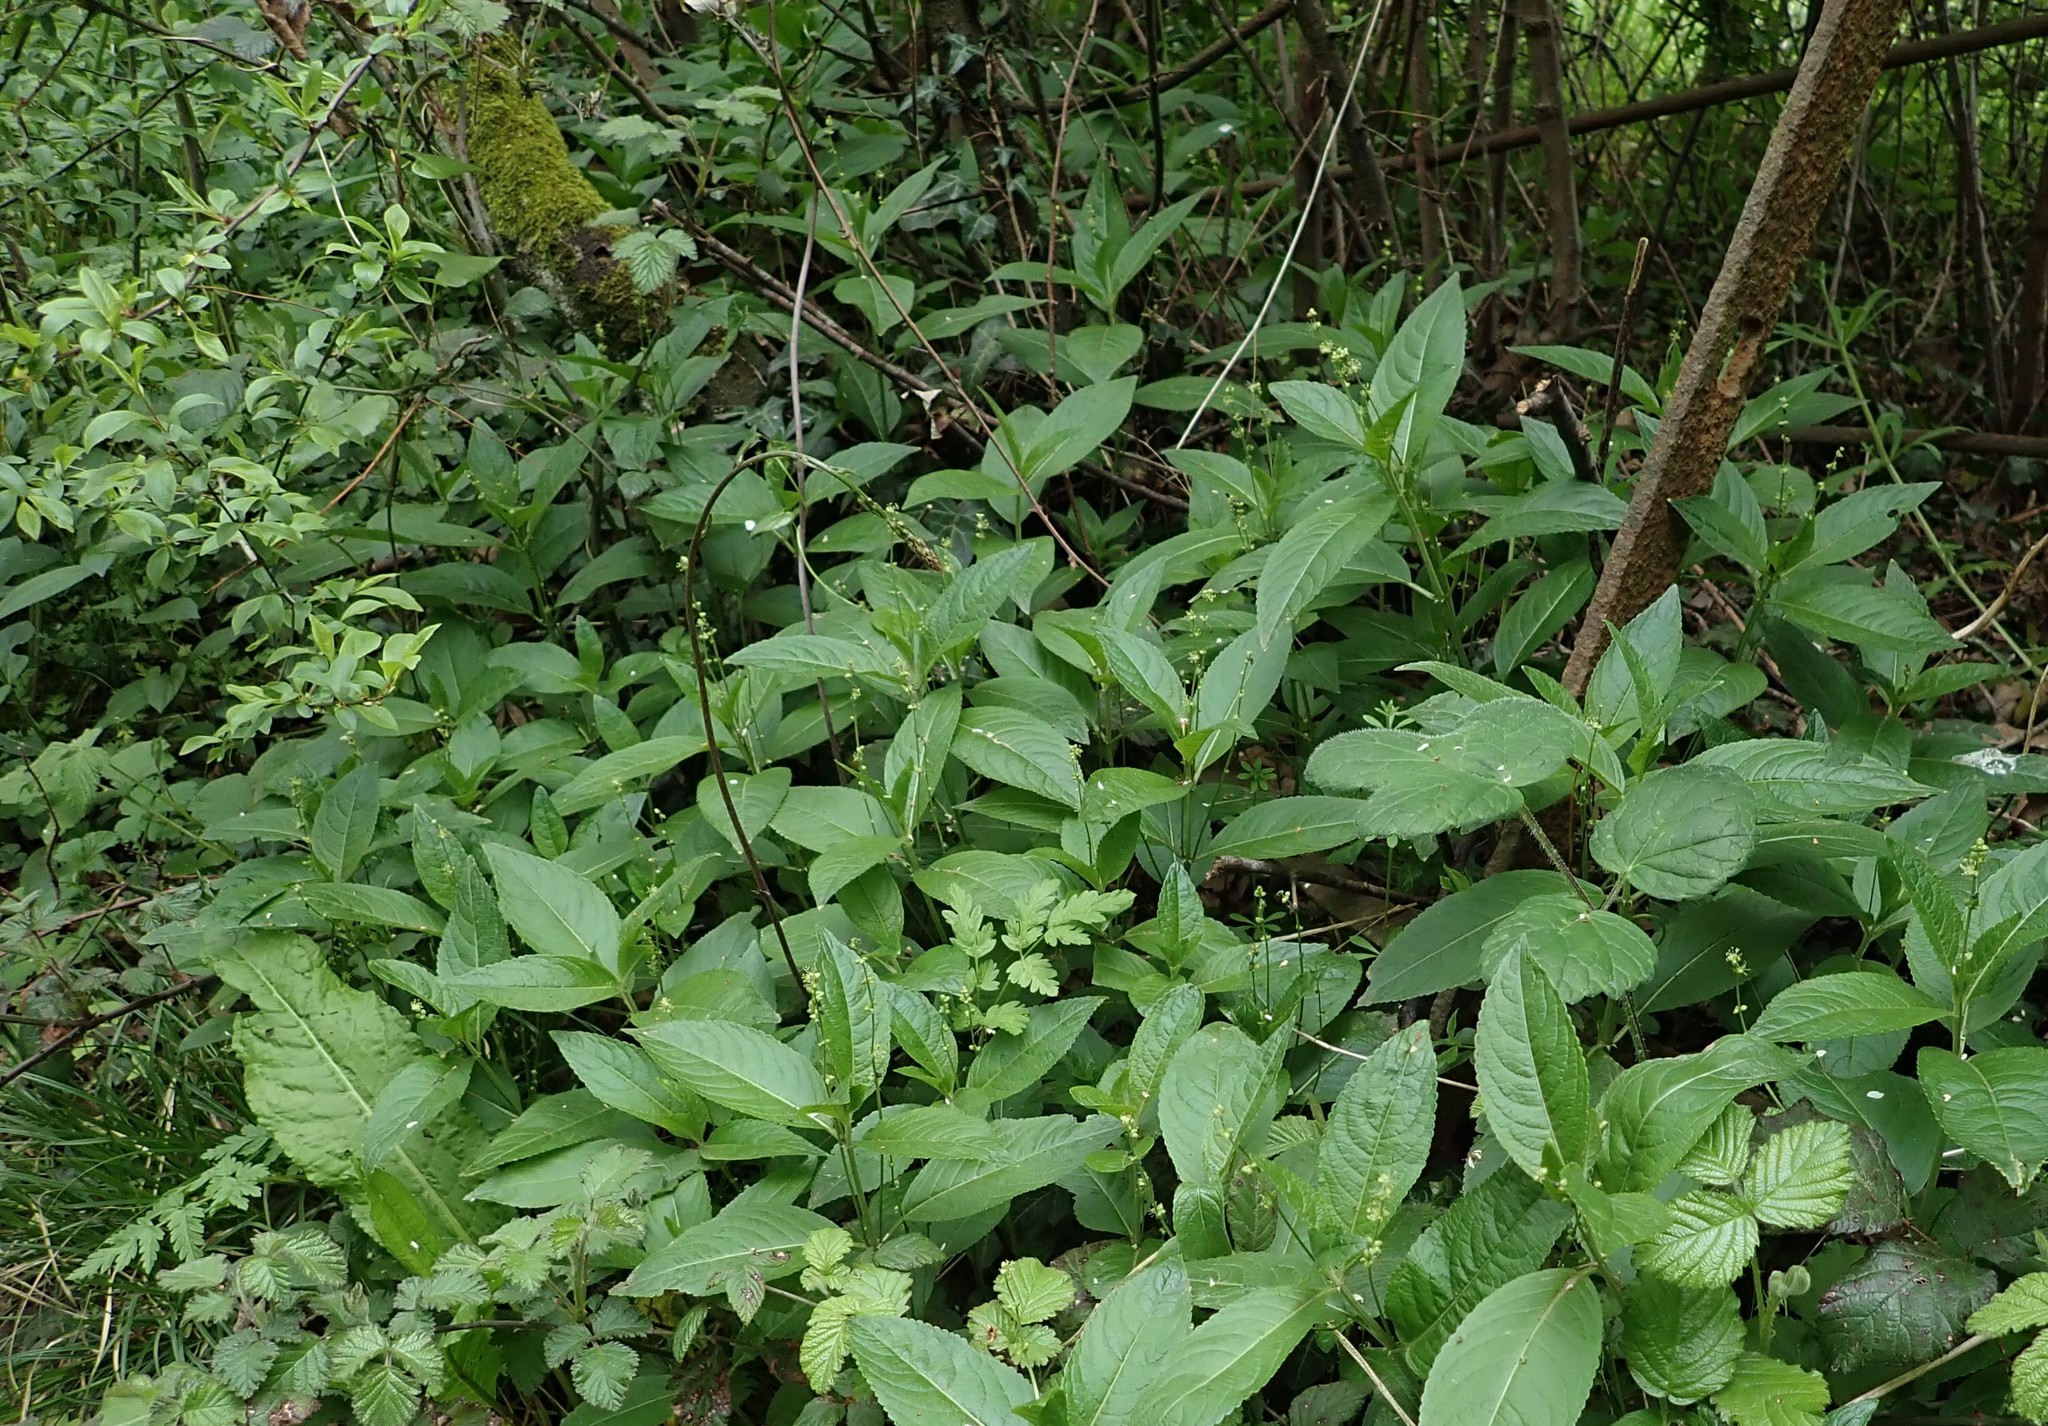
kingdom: Plantae
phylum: Tracheophyta
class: Magnoliopsida
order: Malpighiales
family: Euphorbiaceae
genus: Mercurialis
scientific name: Mercurialis perennis
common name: Dog mercury
